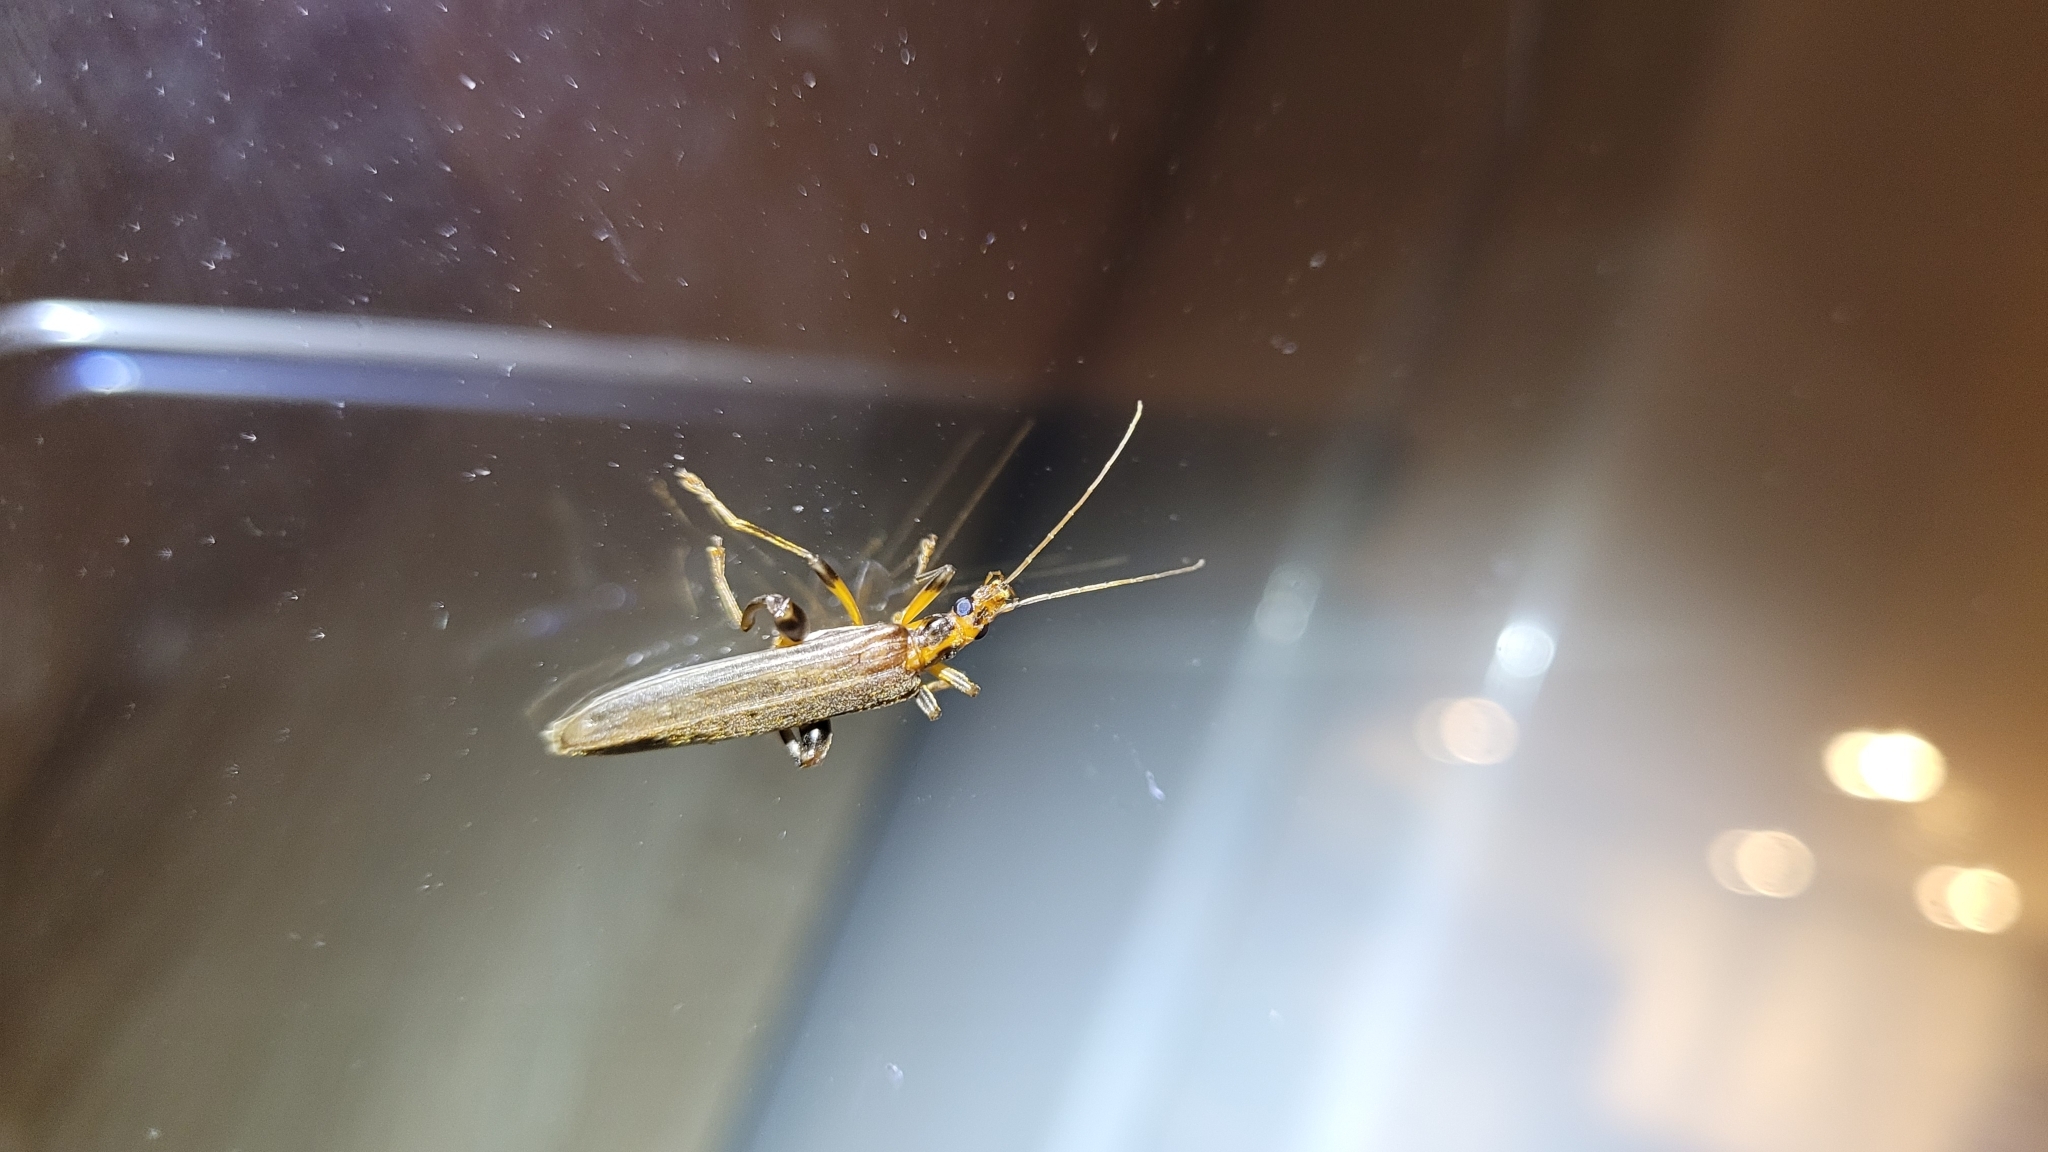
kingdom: Animalia
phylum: Arthropoda
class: Insecta
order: Coleoptera
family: Oedemeridae
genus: Oedemera
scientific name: Oedemera femoralis
